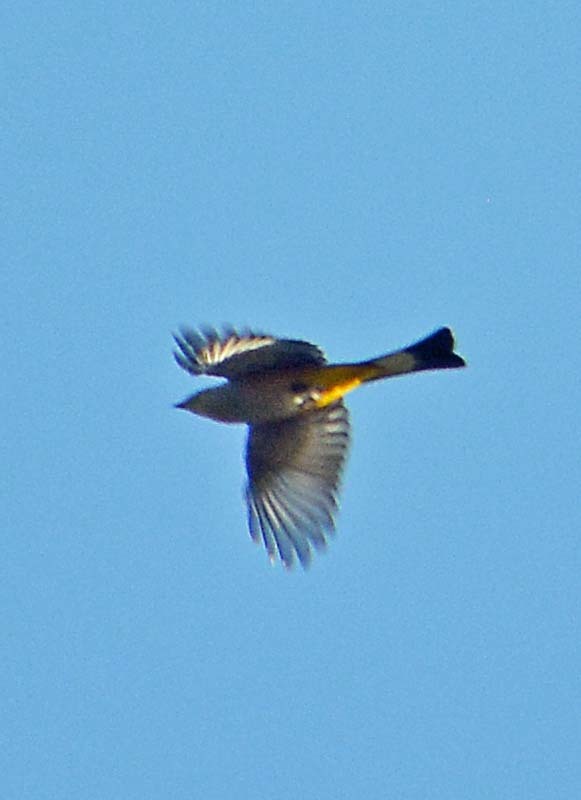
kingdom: Animalia
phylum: Chordata
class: Aves
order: Passeriformes
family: Ptilogonatidae
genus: Ptilogonys
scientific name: Ptilogonys cinereus
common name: Gray silky-flycatcher
